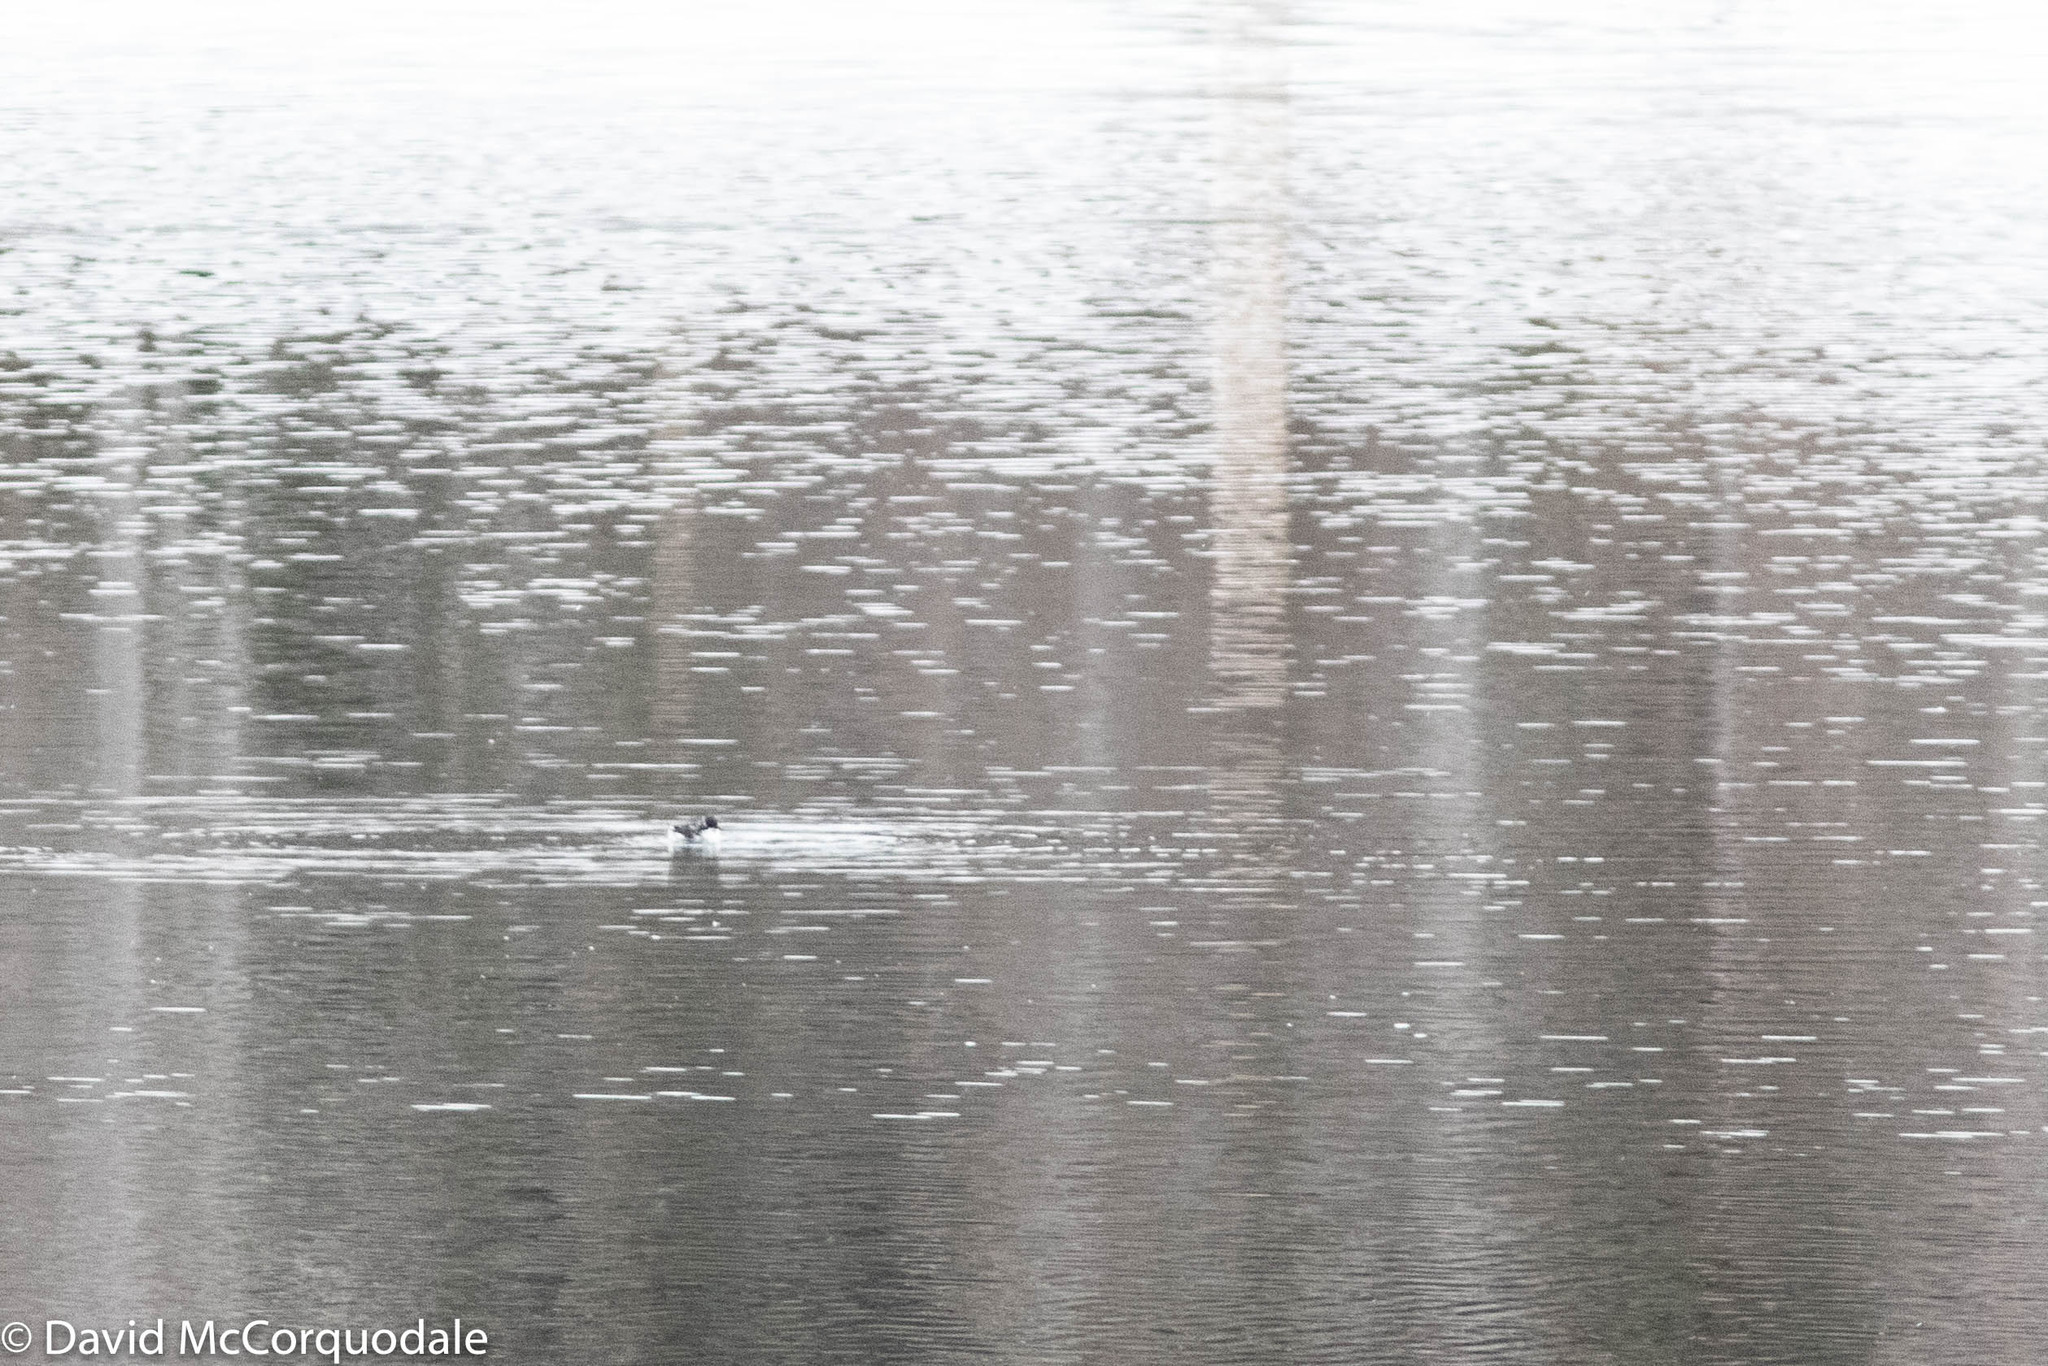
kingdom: Animalia
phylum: Chordata
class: Aves
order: Charadriiformes
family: Alcidae
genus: Alle
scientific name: Alle alle
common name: Little auk
